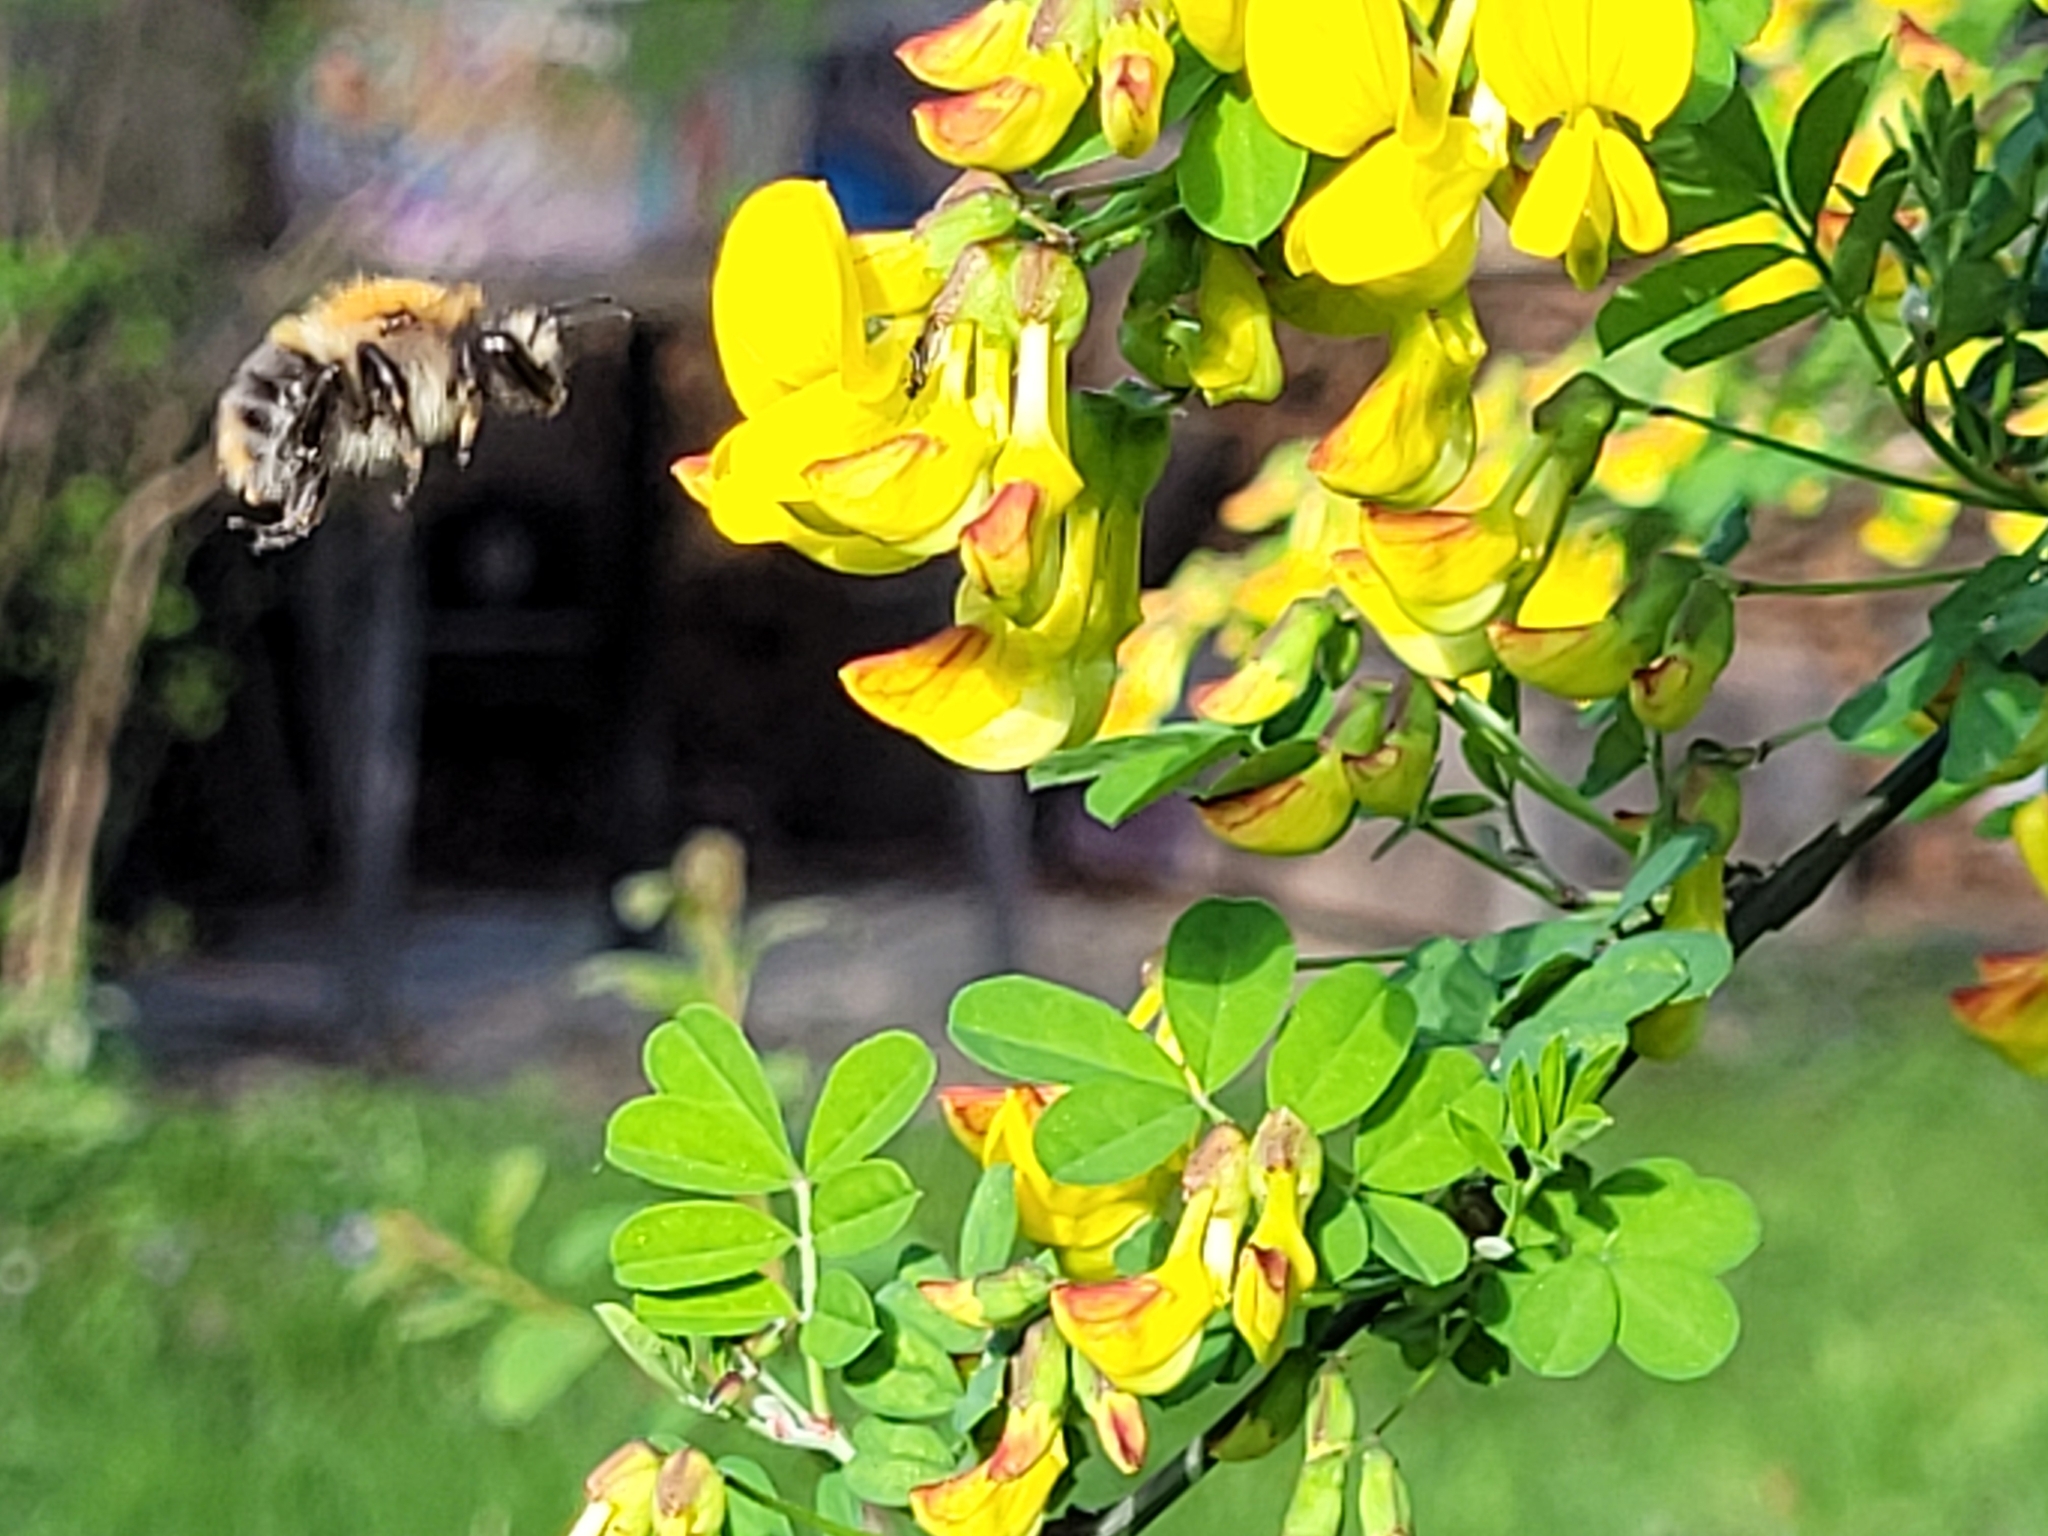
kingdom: Animalia
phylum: Arthropoda
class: Insecta
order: Hymenoptera
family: Apidae
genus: Bombus
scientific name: Bombus pascuorum
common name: Common carder bee
